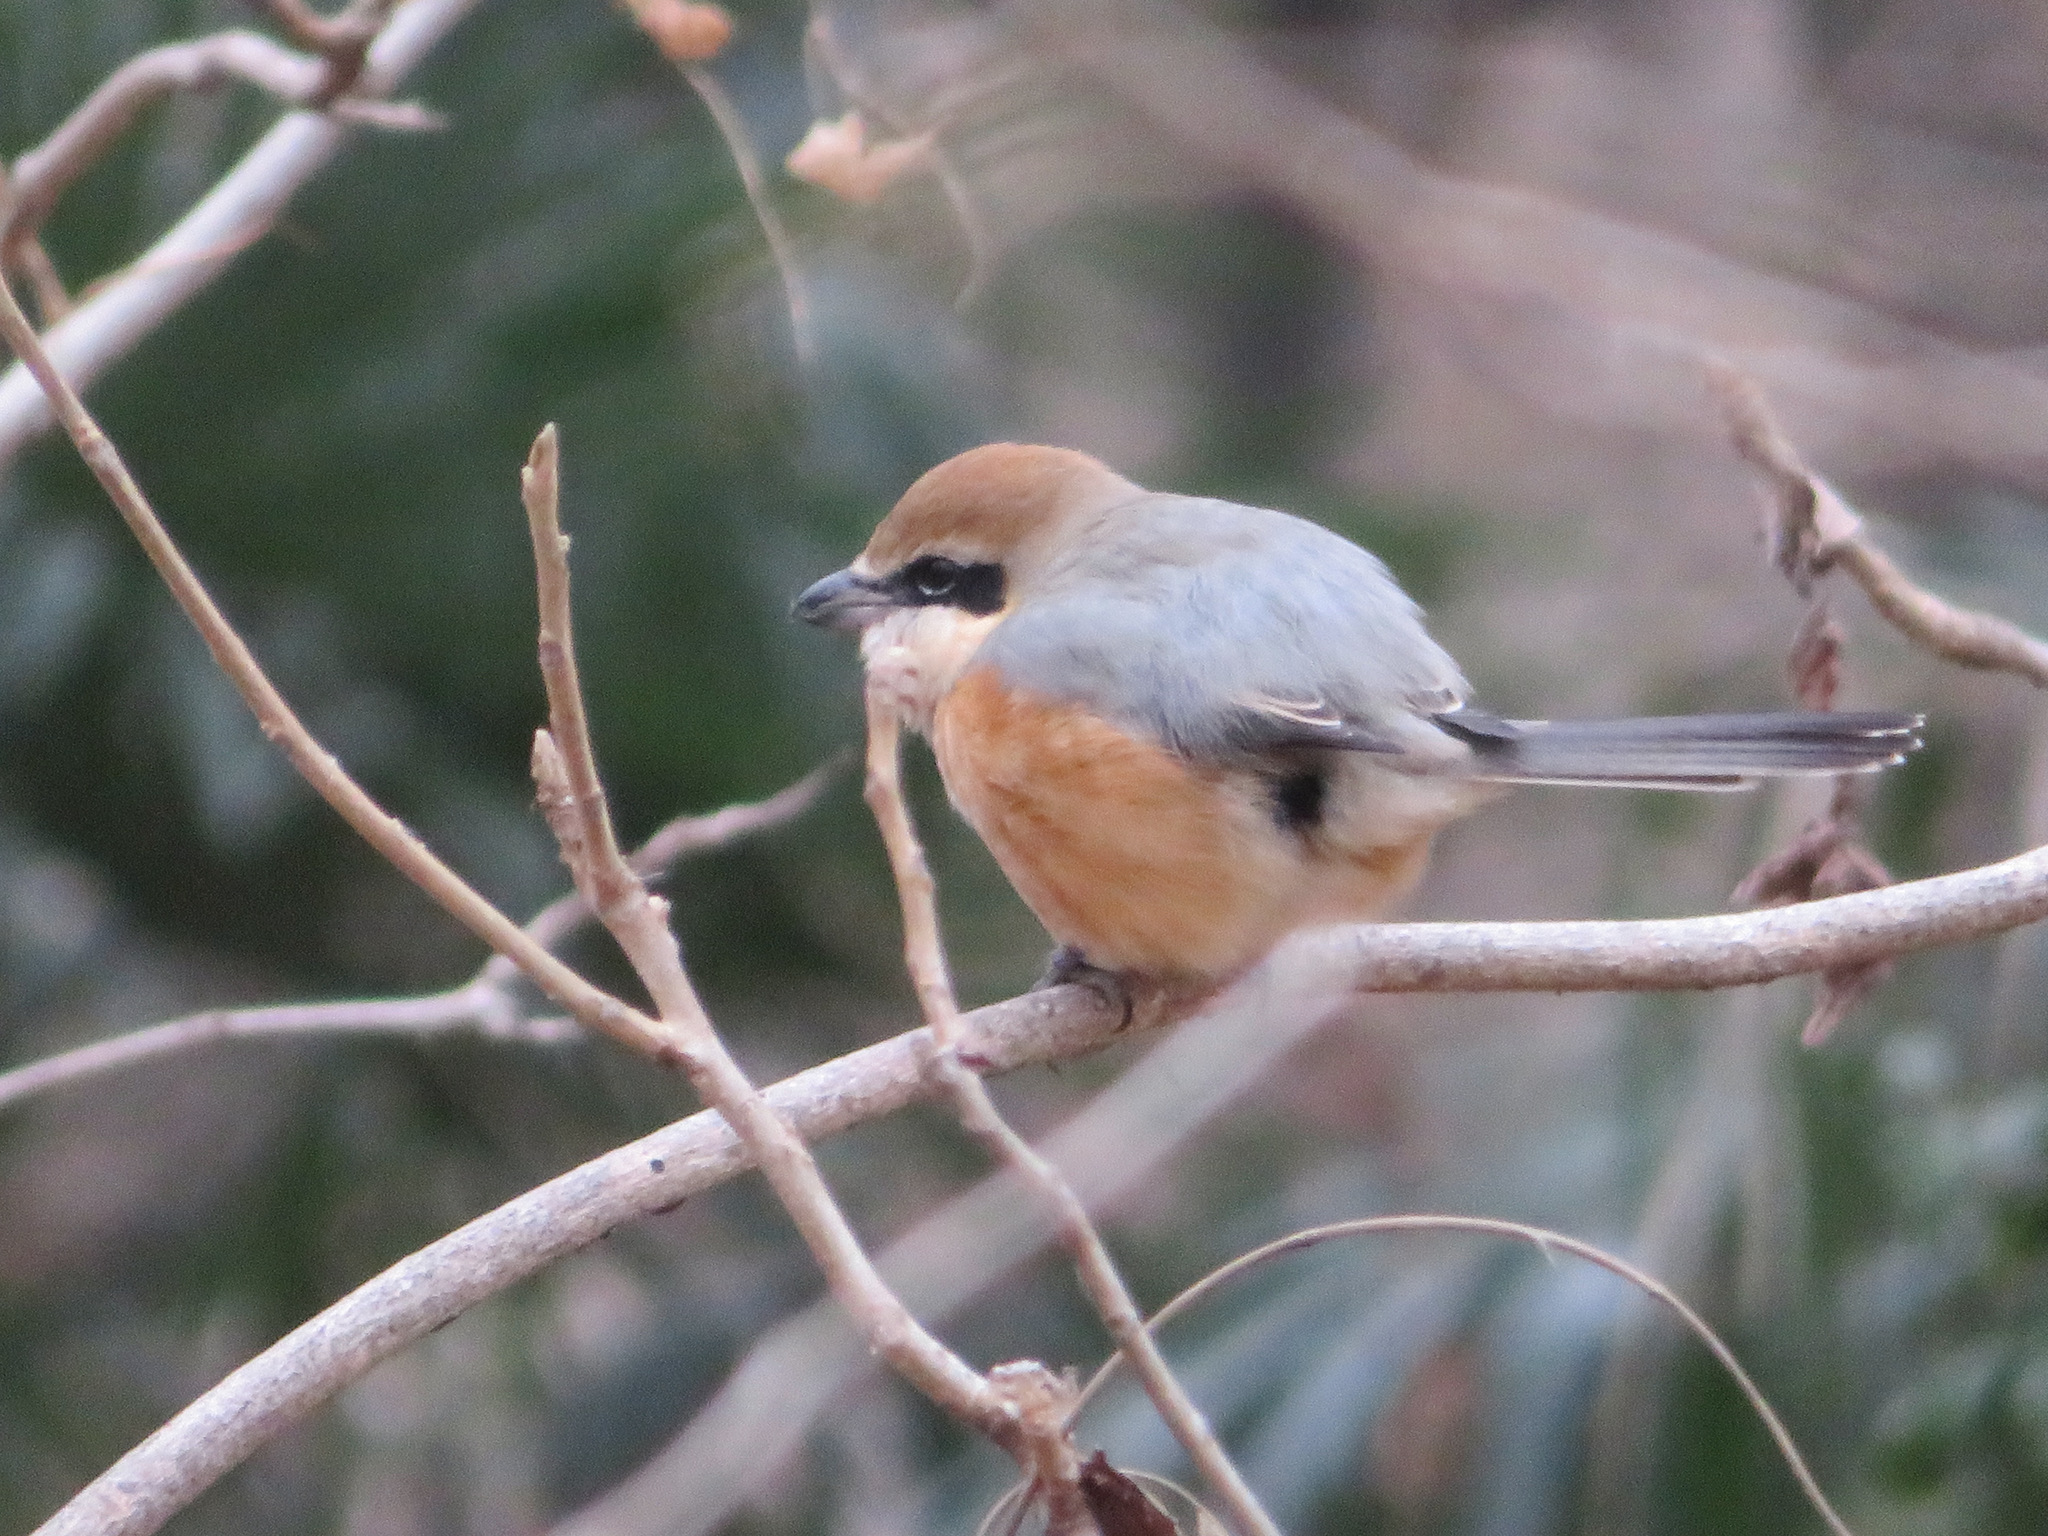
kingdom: Animalia
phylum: Chordata
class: Aves
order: Passeriformes
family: Laniidae
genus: Lanius
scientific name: Lanius bucephalus
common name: Bull-headed shrike
